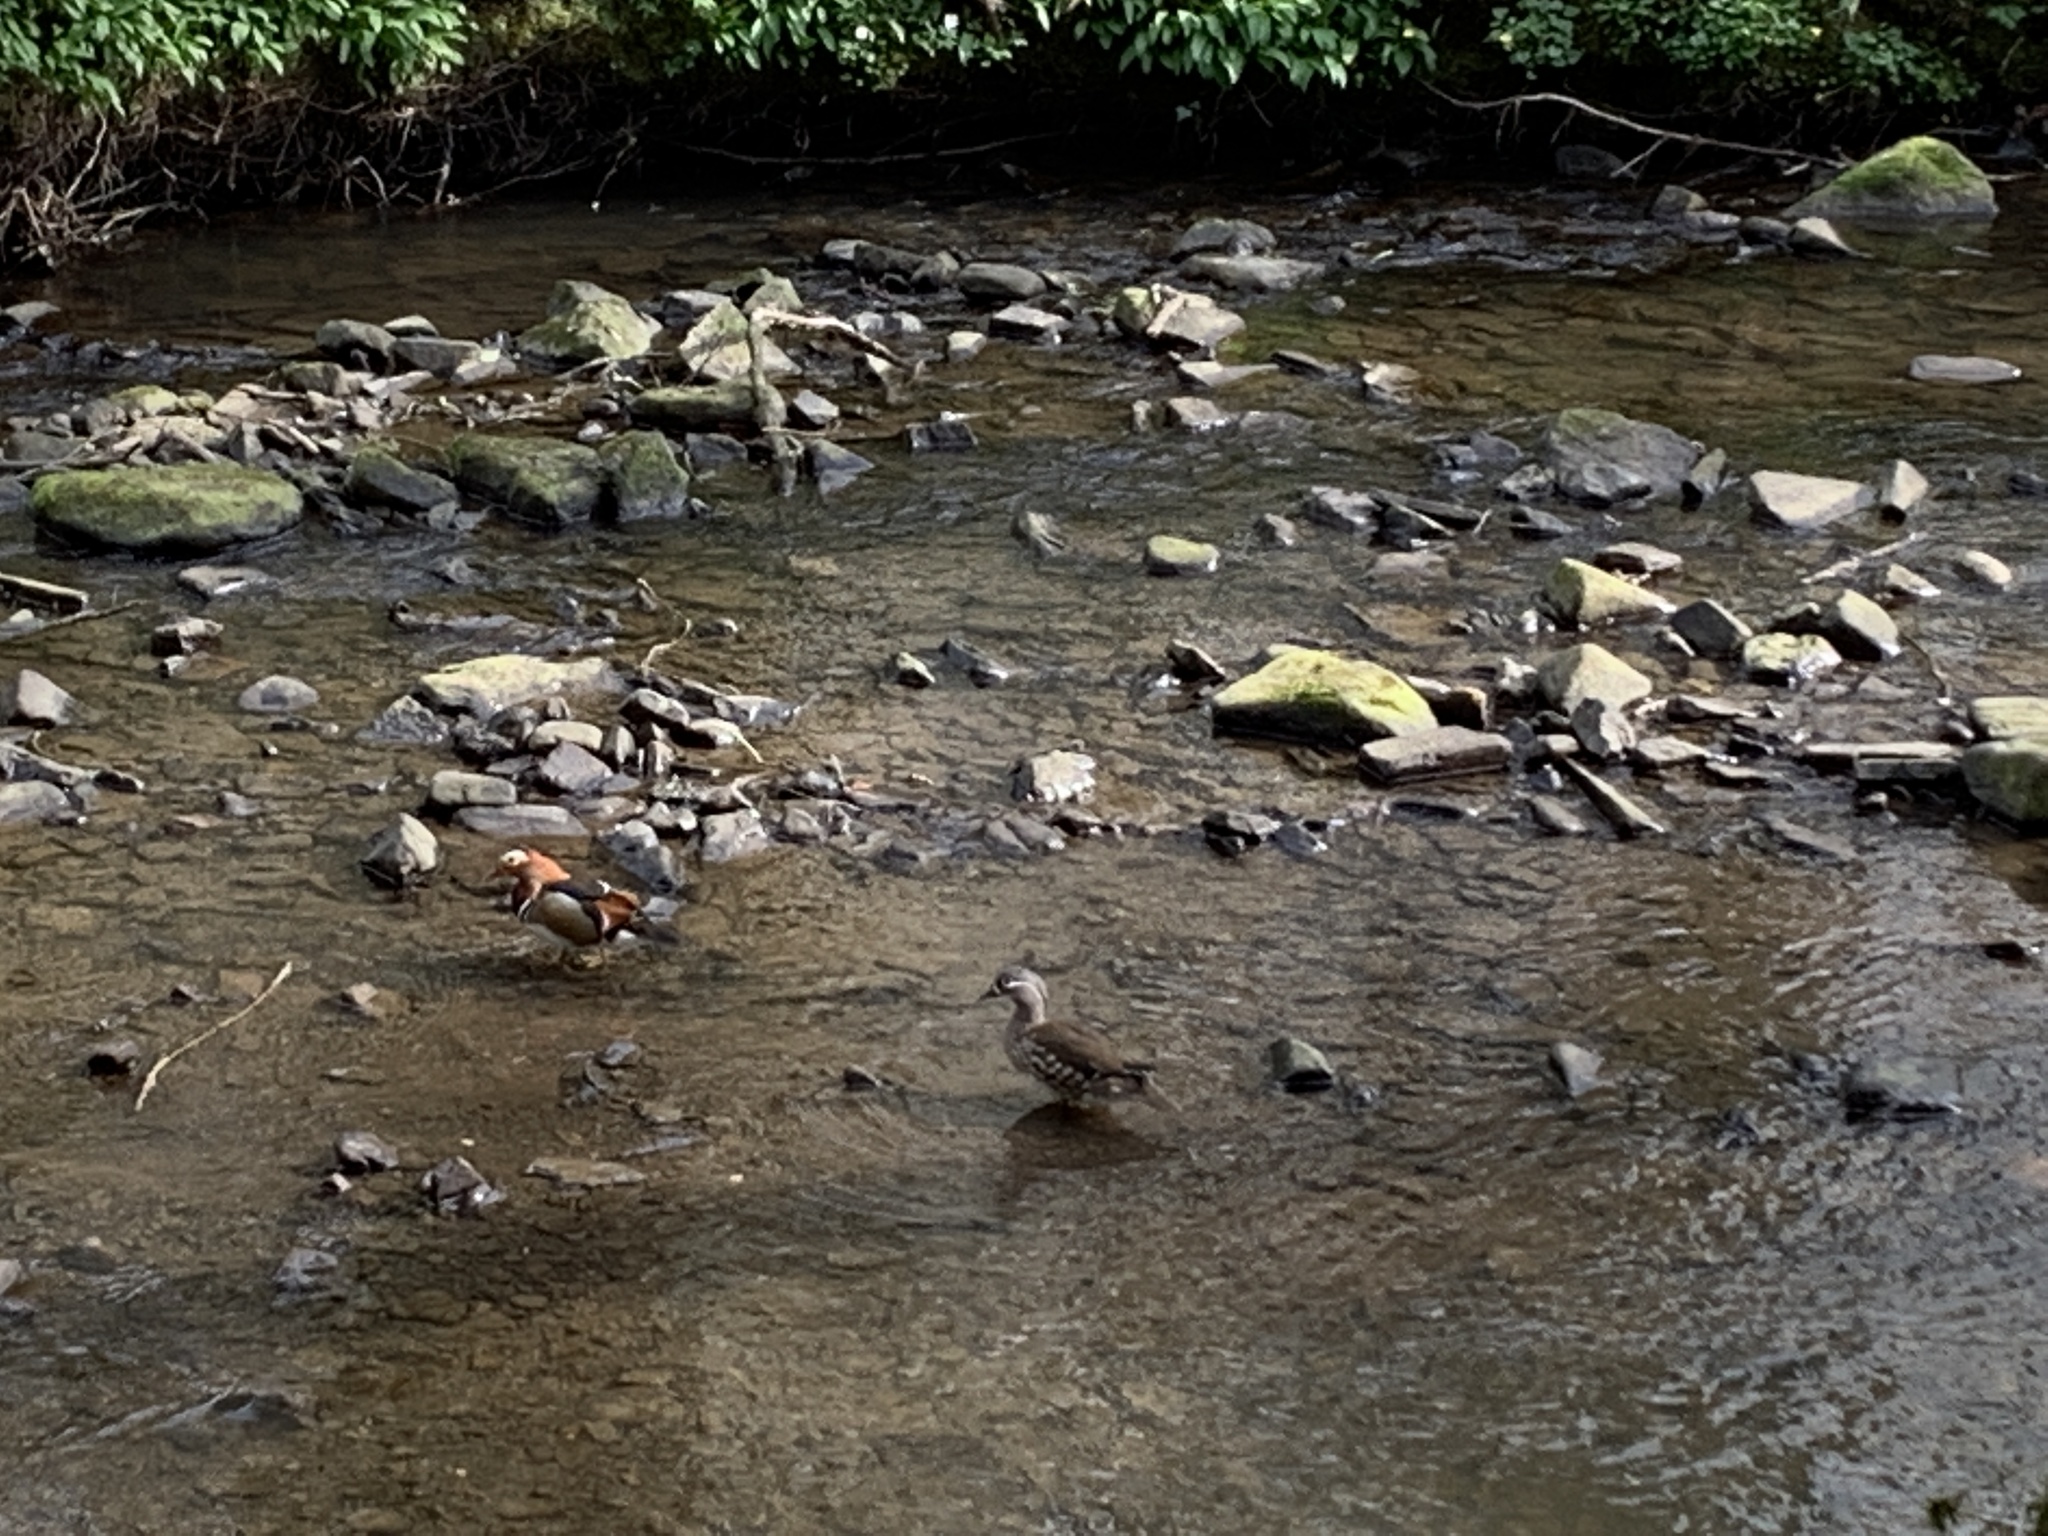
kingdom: Animalia
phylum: Chordata
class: Aves
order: Anseriformes
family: Anatidae
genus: Aix
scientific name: Aix galericulata
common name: Mandarin duck
